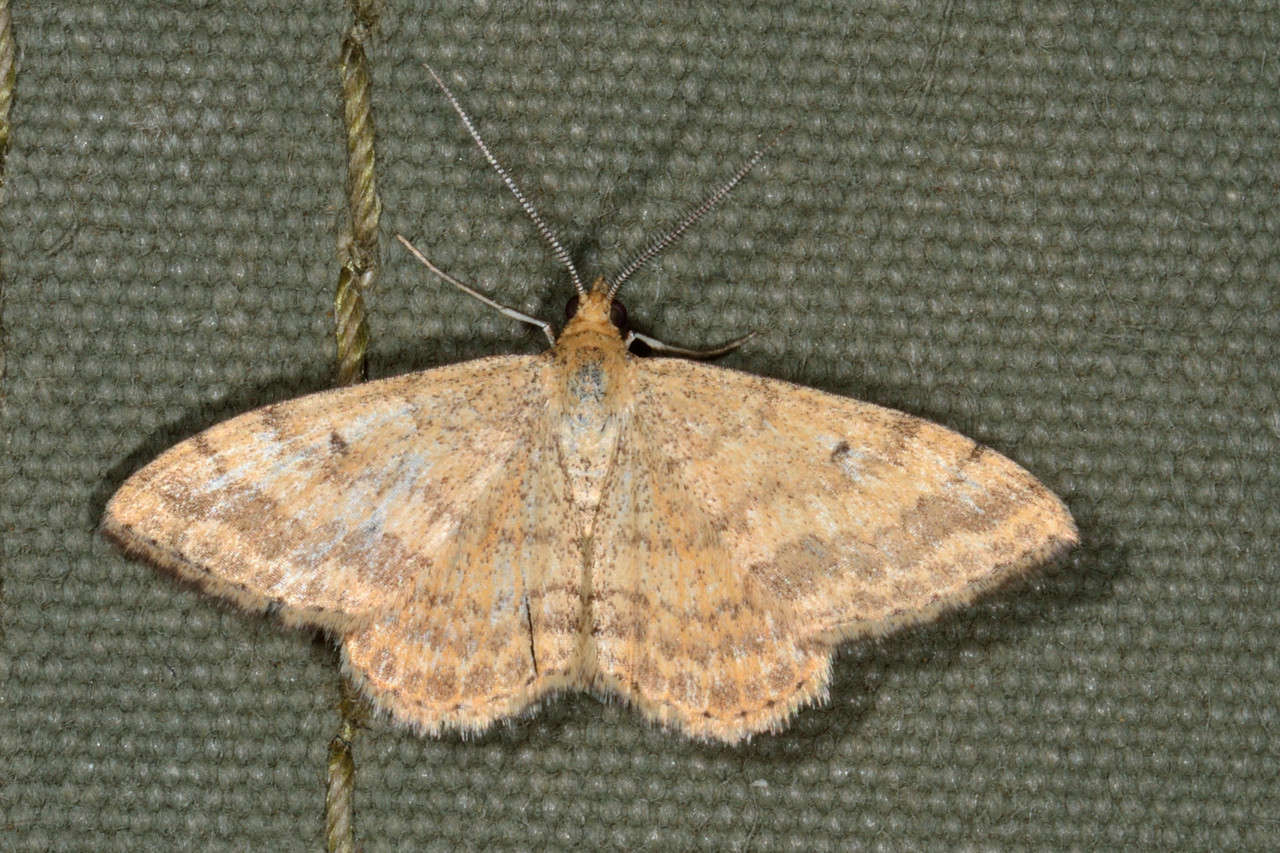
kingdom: Animalia
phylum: Arthropoda
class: Insecta
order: Lepidoptera
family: Geometridae
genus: Scopula
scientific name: Scopula rubraria
